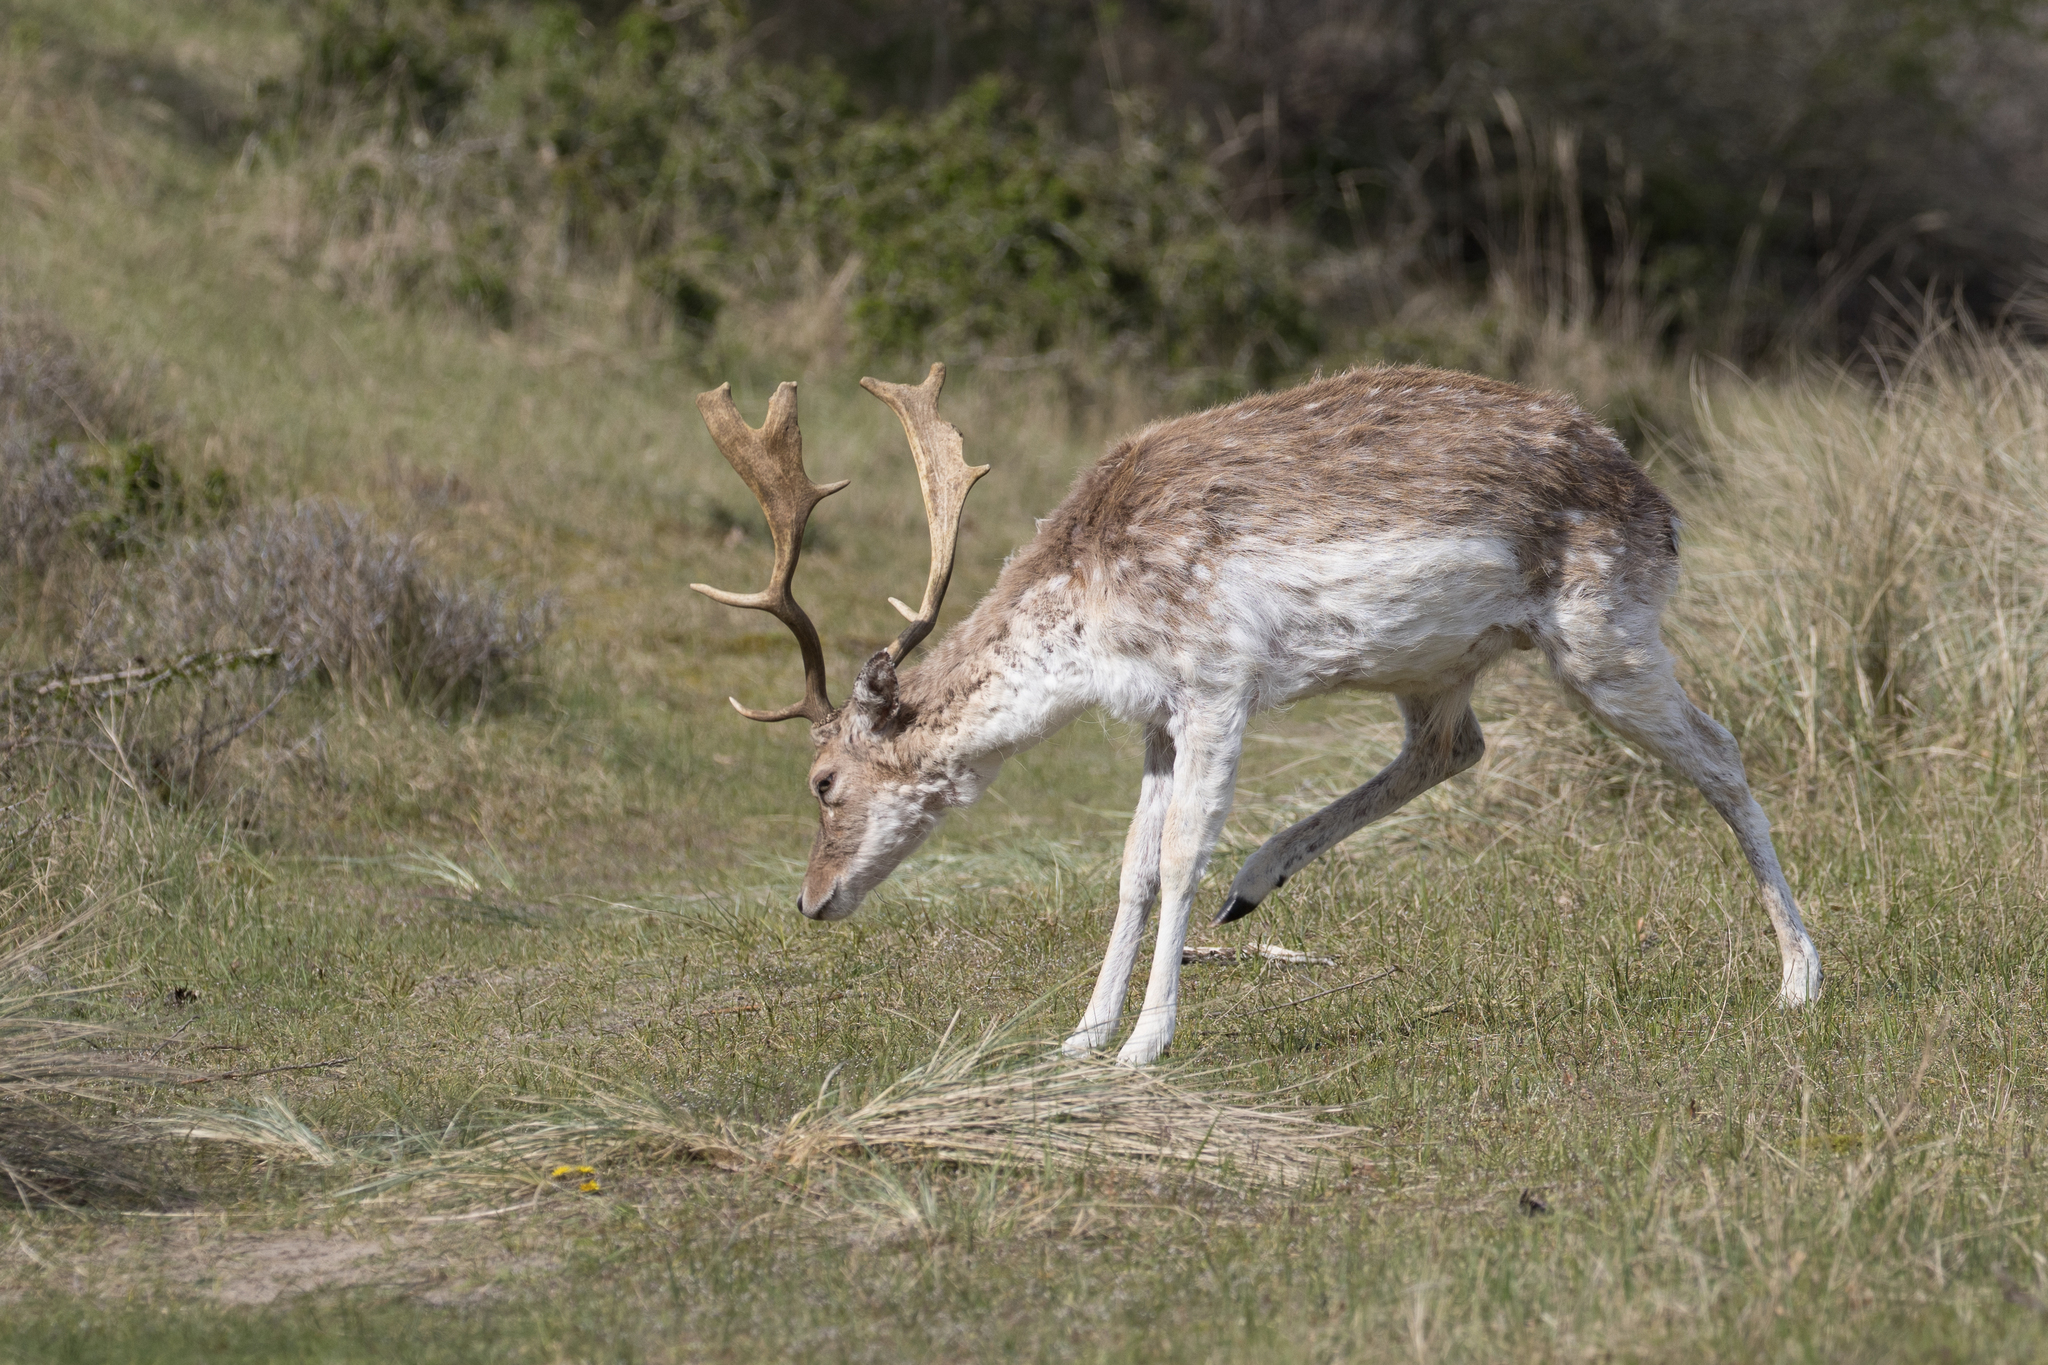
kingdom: Animalia
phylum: Chordata
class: Mammalia
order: Artiodactyla
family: Cervidae
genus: Dama
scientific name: Dama dama
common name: Fallow deer
